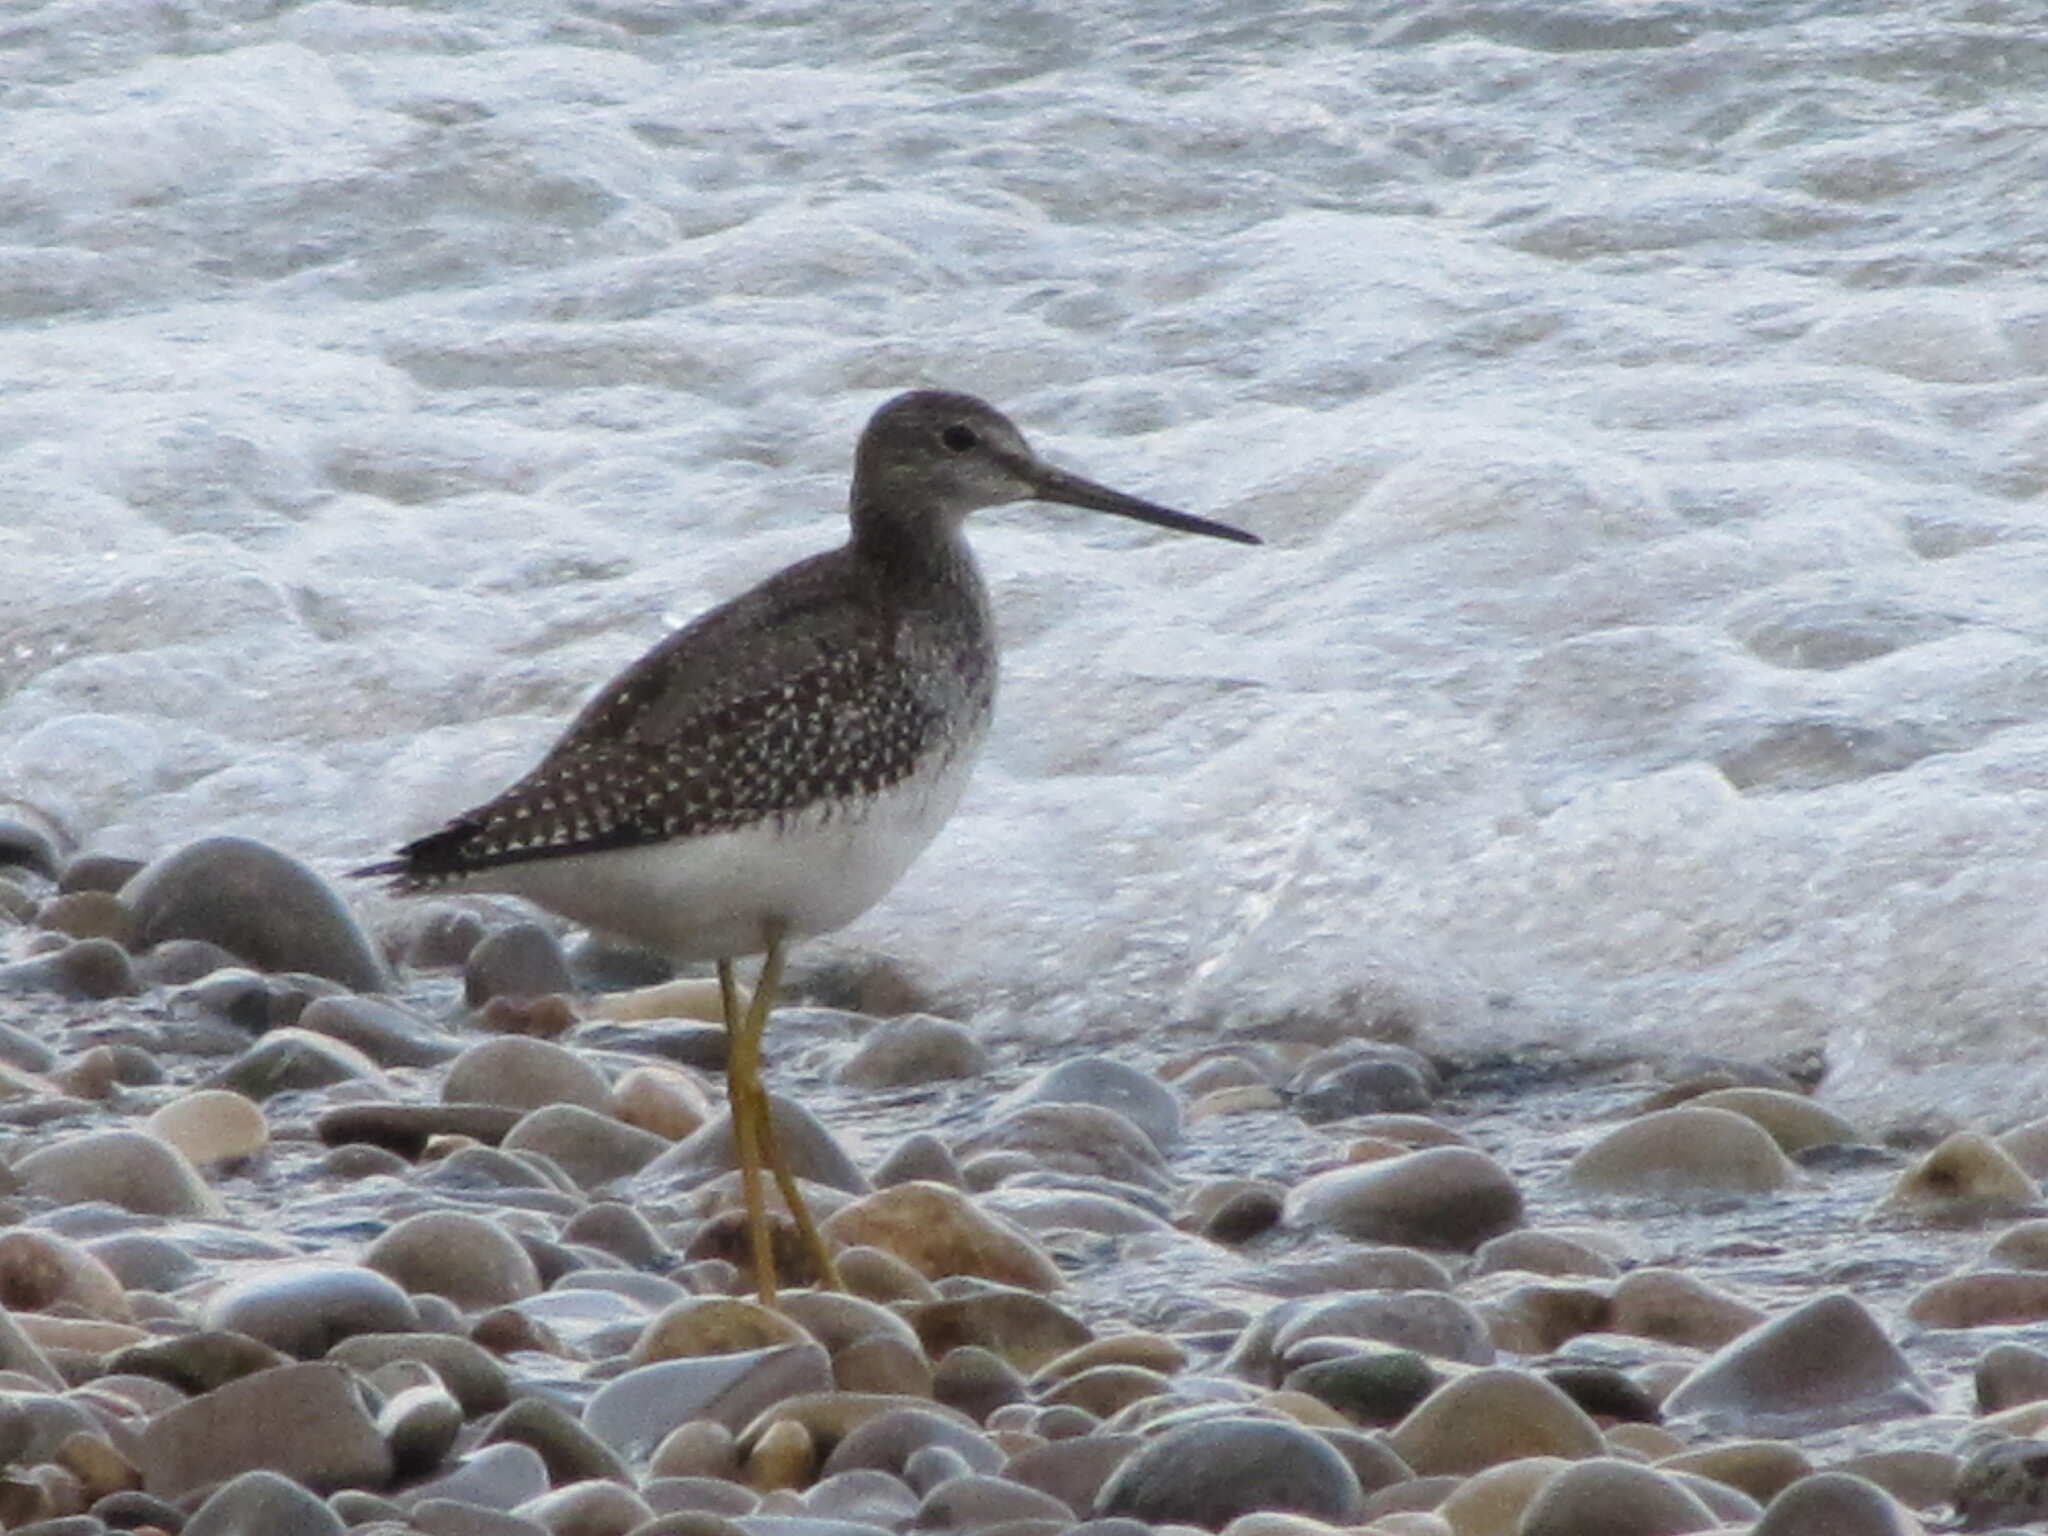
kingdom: Animalia
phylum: Chordata
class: Aves
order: Charadriiformes
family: Scolopacidae
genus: Tringa
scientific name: Tringa melanoleuca
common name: Greater yellowlegs
